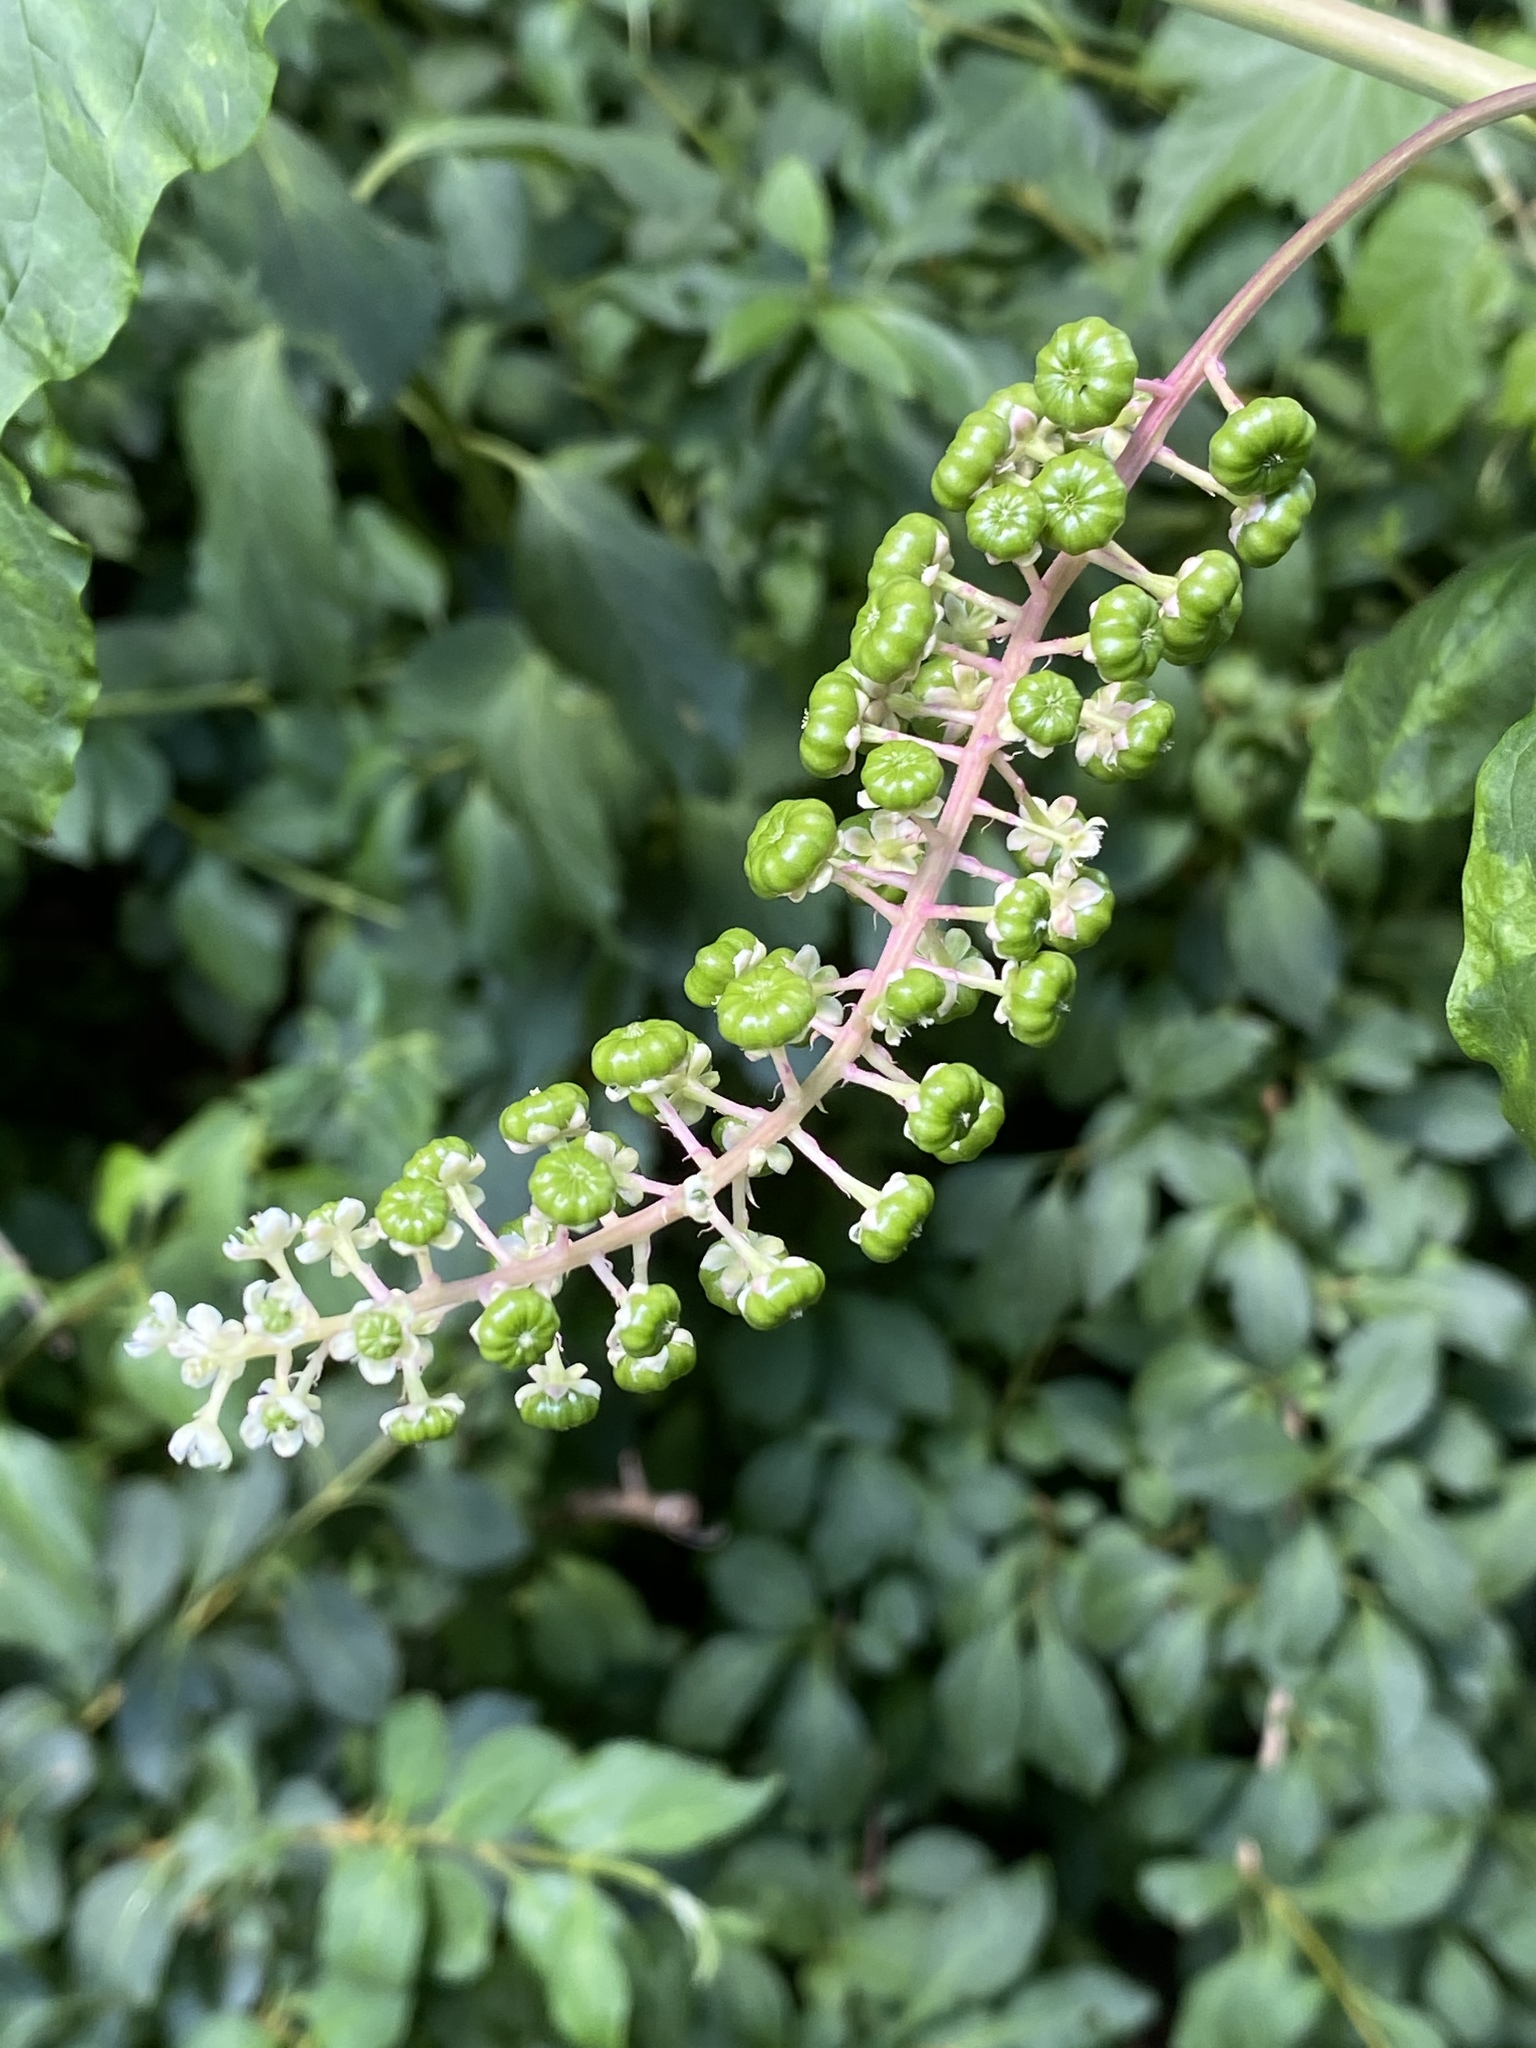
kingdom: Plantae
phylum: Tracheophyta
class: Magnoliopsida
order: Caryophyllales
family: Phytolaccaceae
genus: Phytolacca
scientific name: Phytolacca americana
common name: American pokeweed
